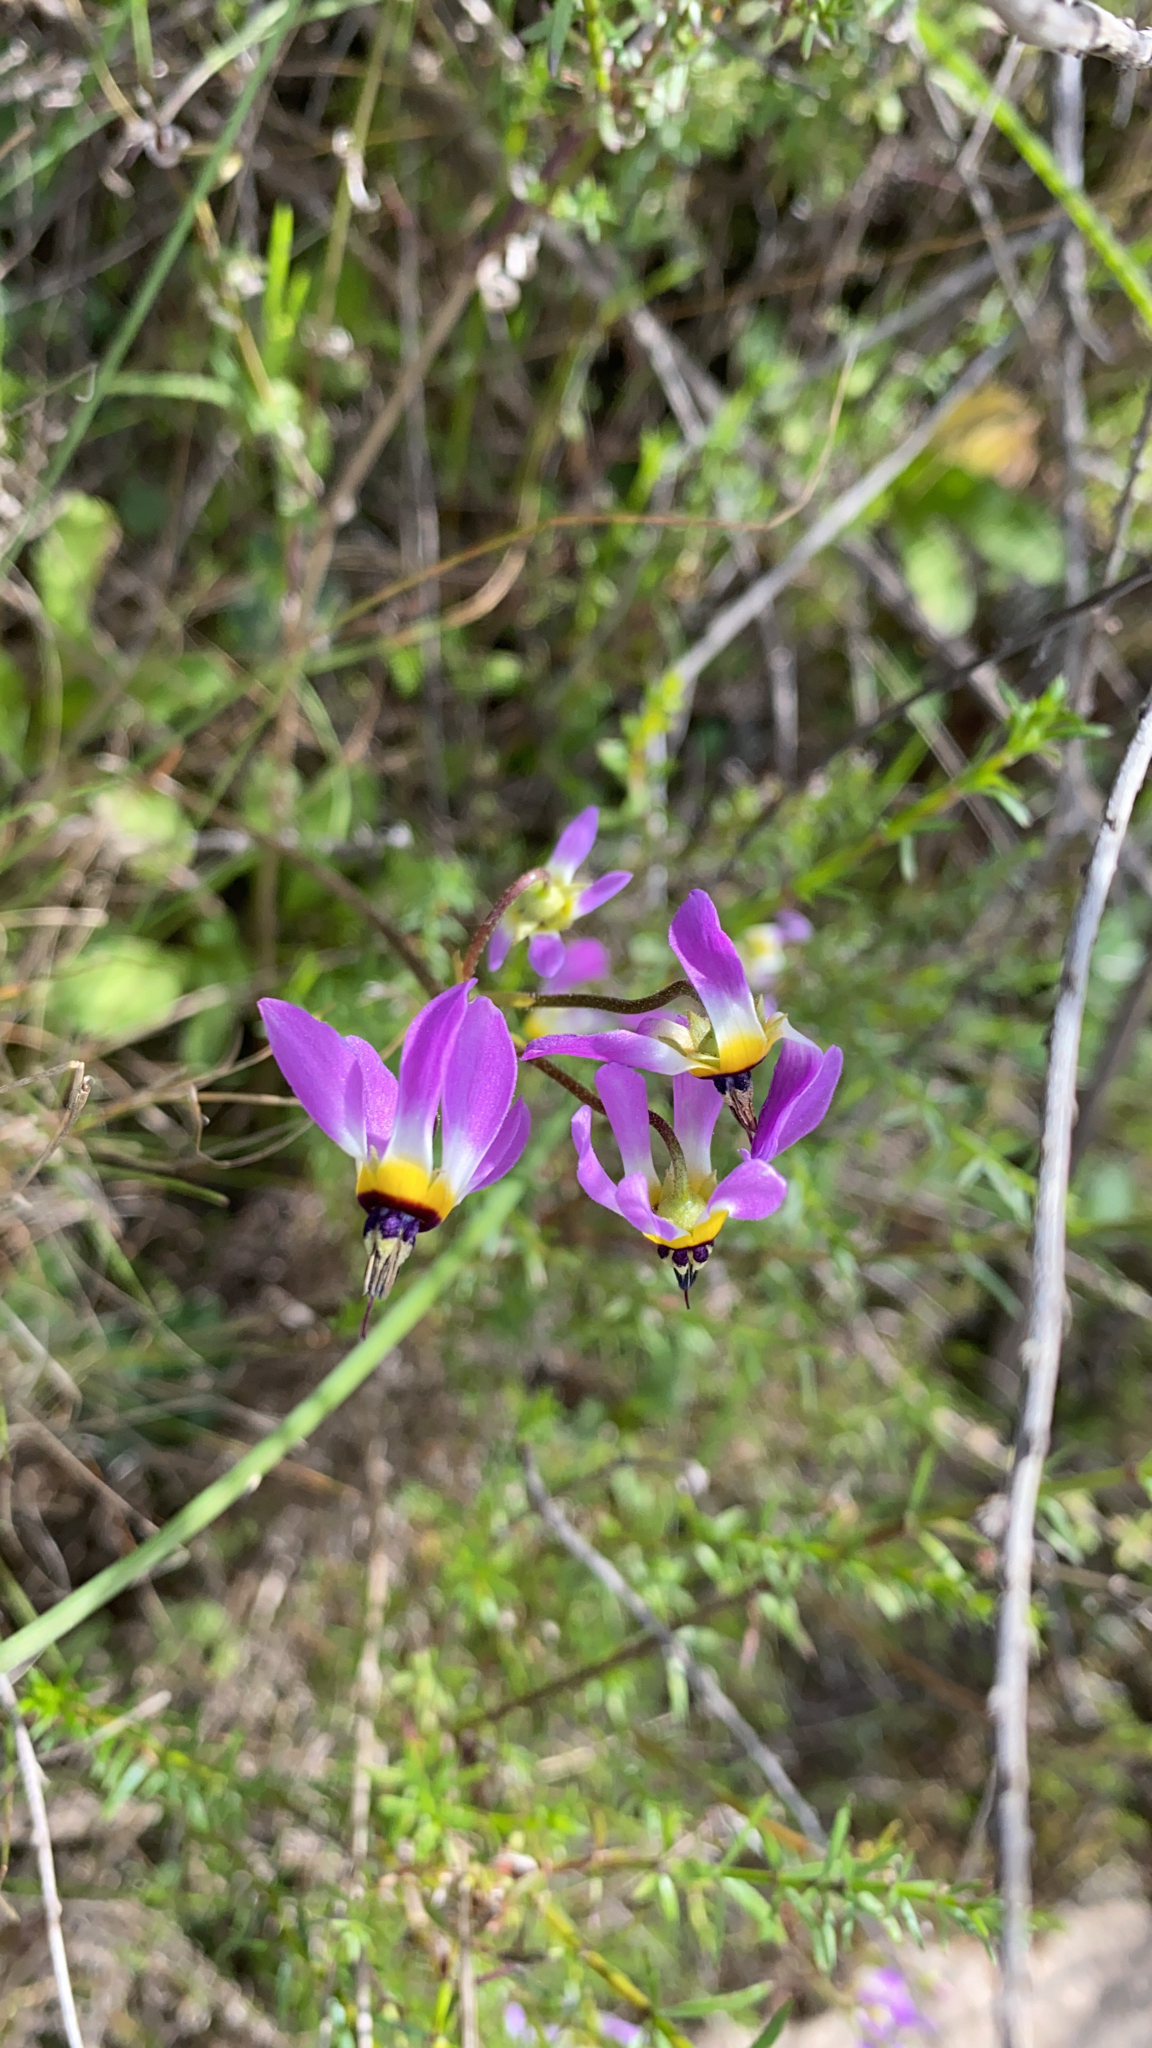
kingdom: Plantae
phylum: Tracheophyta
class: Magnoliopsida
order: Ericales
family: Primulaceae
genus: Dodecatheon
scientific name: Dodecatheon clevelandii
